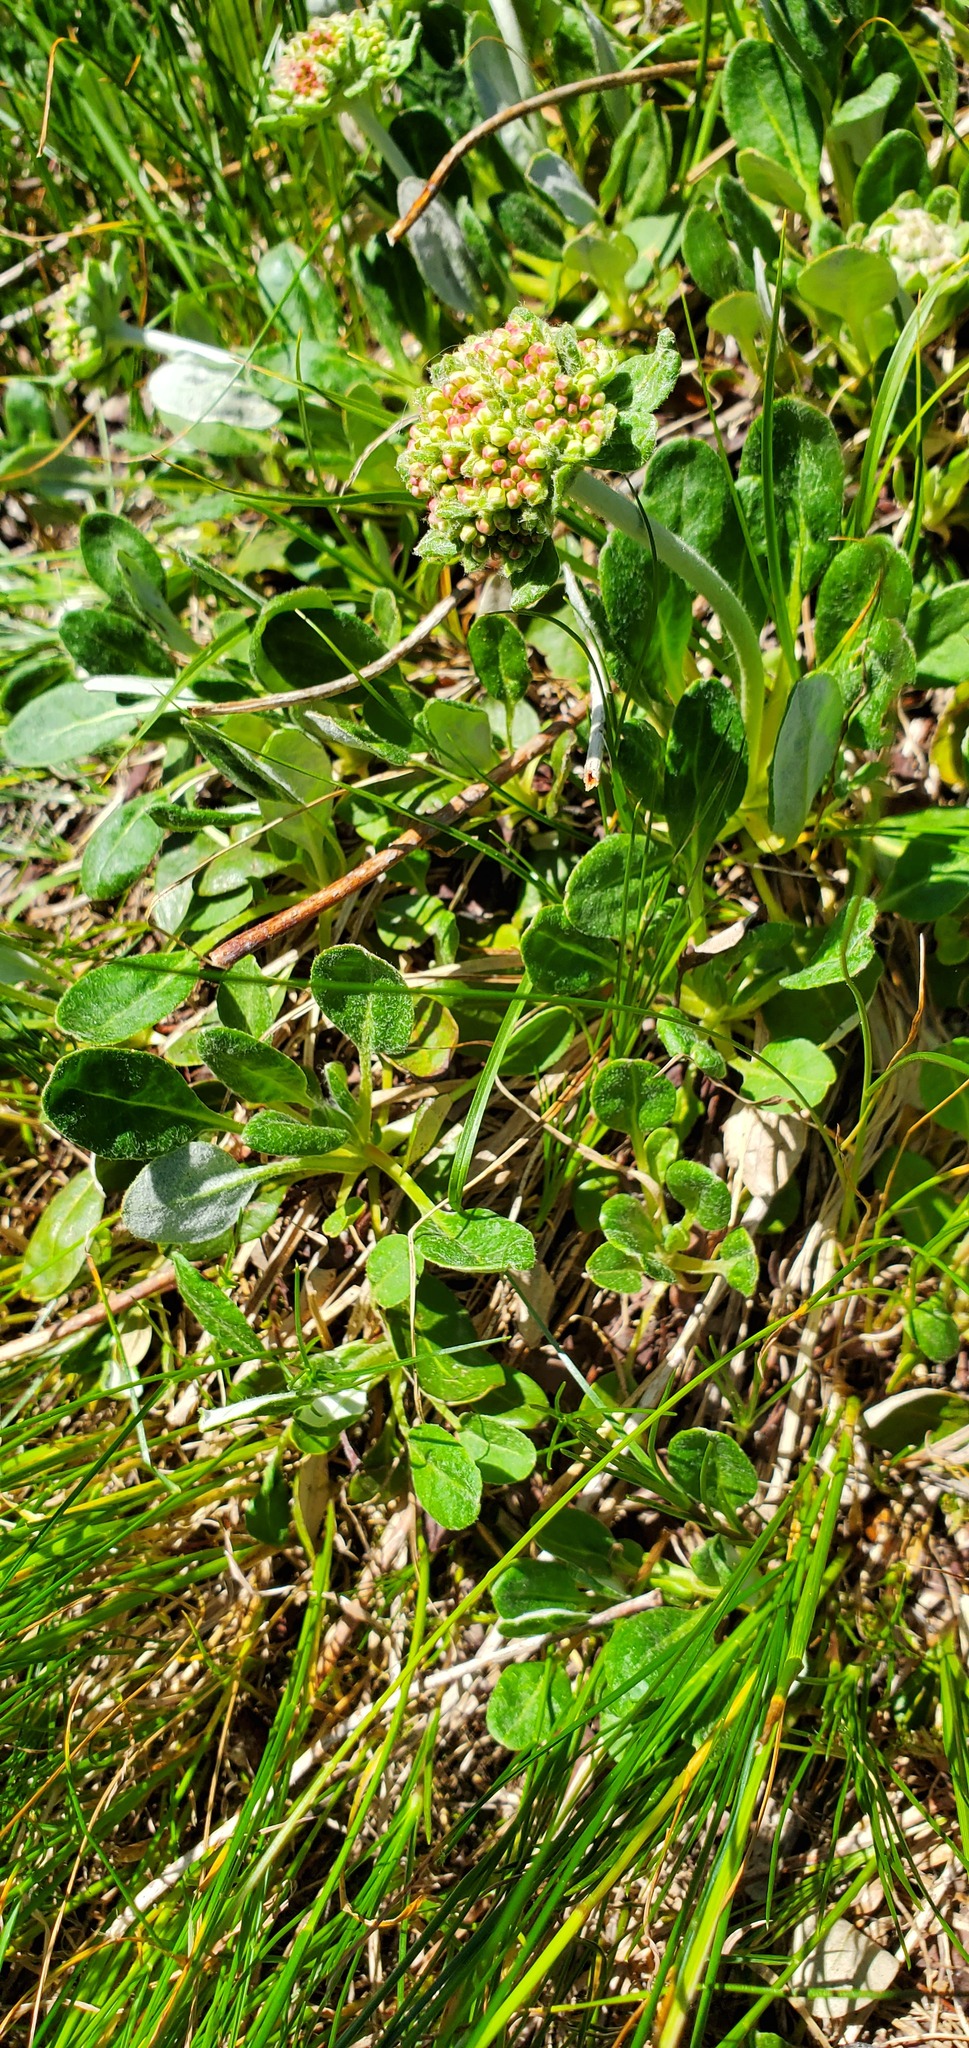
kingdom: Plantae
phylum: Tracheophyta
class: Magnoliopsida
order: Caryophyllales
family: Polygonaceae
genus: Eriogonum
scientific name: Eriogonum umbellatum
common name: Sulfur-buckwheat
